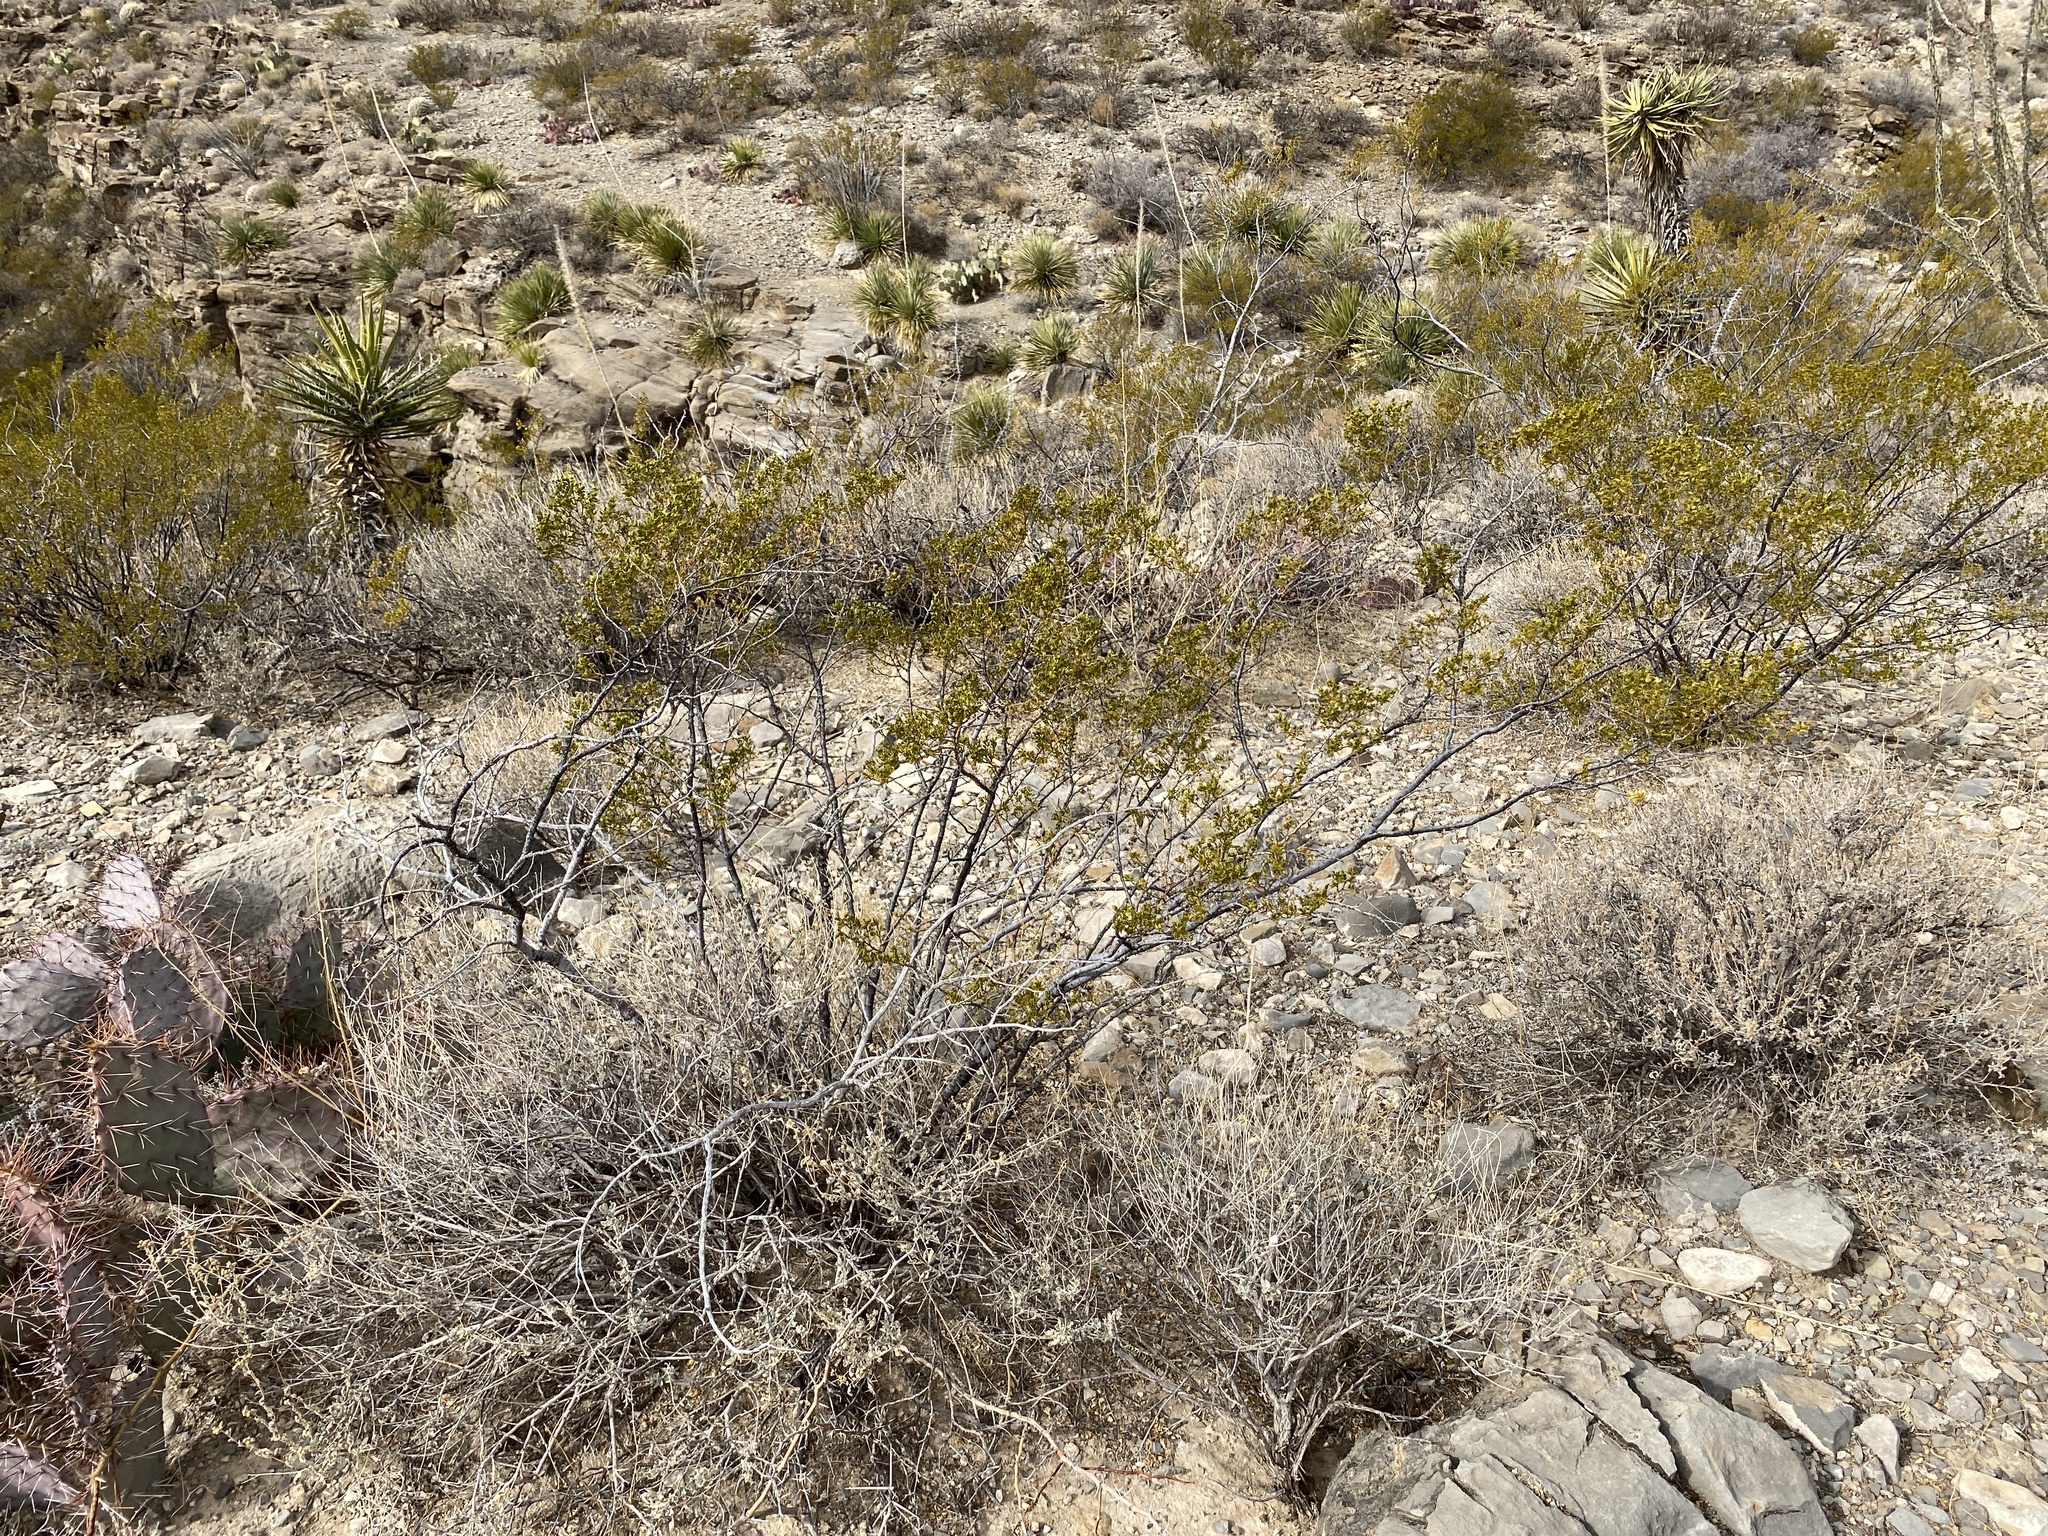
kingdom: Plantae
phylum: Tracheophyta
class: Magnoliopsida
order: Zygophyllales
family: Zygophyllaceae
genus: Larrea
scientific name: Larrea tridentata
